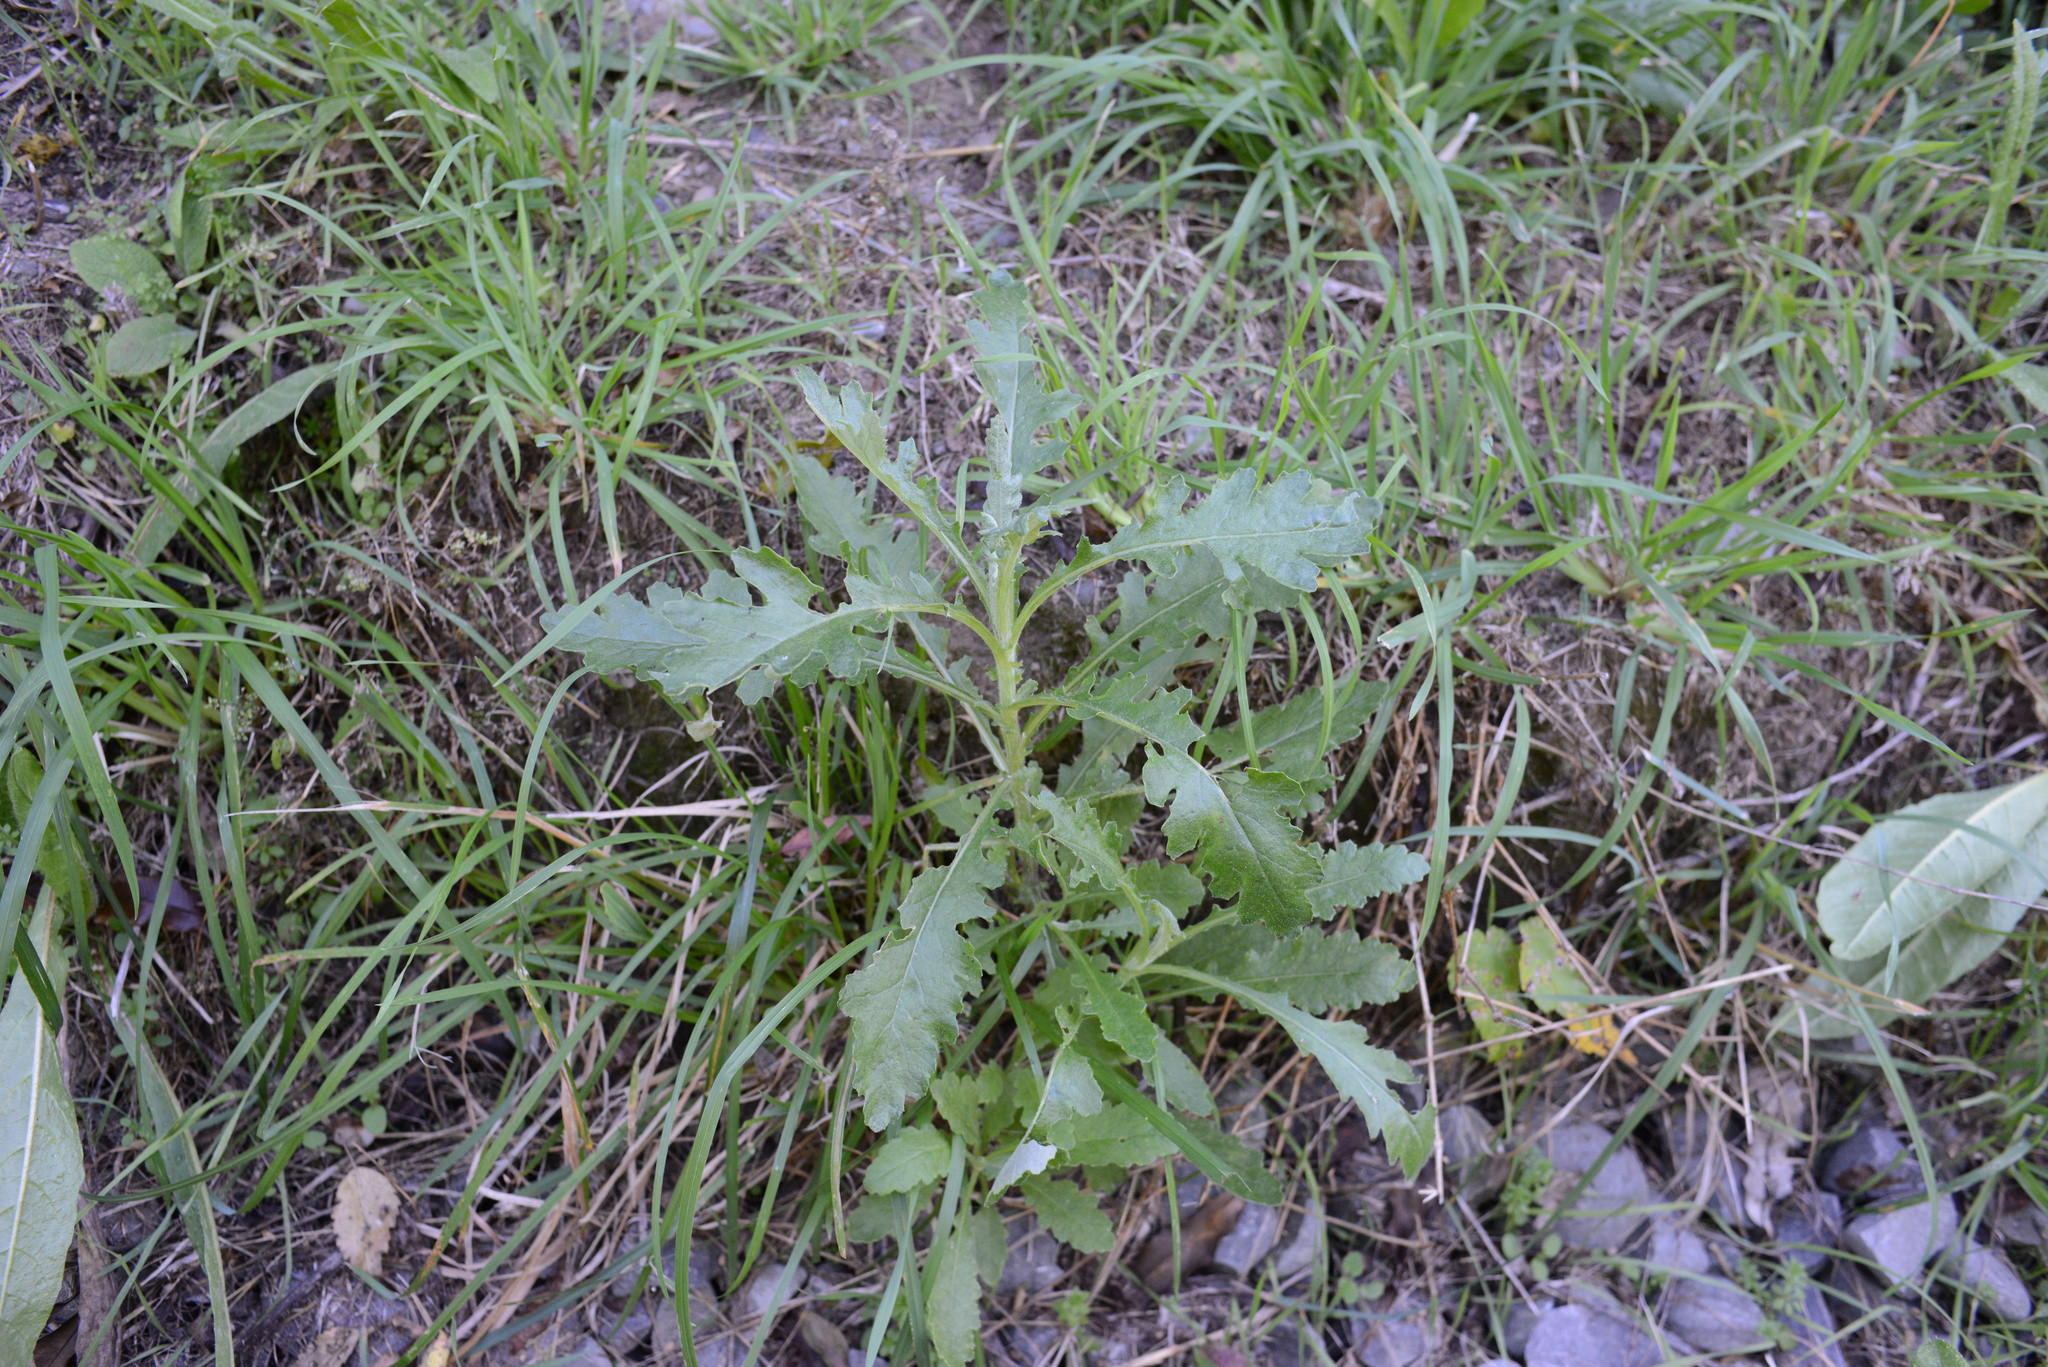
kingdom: Plantae
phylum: Tracheophyta
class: Magnoliopsida
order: Asterales
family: Asteraceae
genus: Senecio
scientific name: Senecio glomeratus
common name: Cutleaf burnweed
